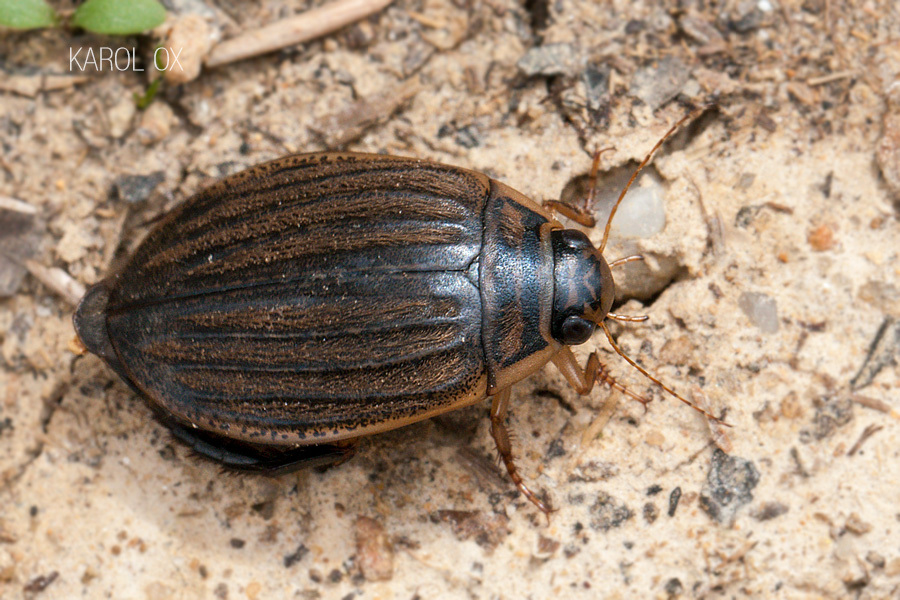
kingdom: Animalia
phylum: Arthropoda
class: Insecta
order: Coleoptera
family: Dytiscidae
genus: Acilius
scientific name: Acilius sulcatus
